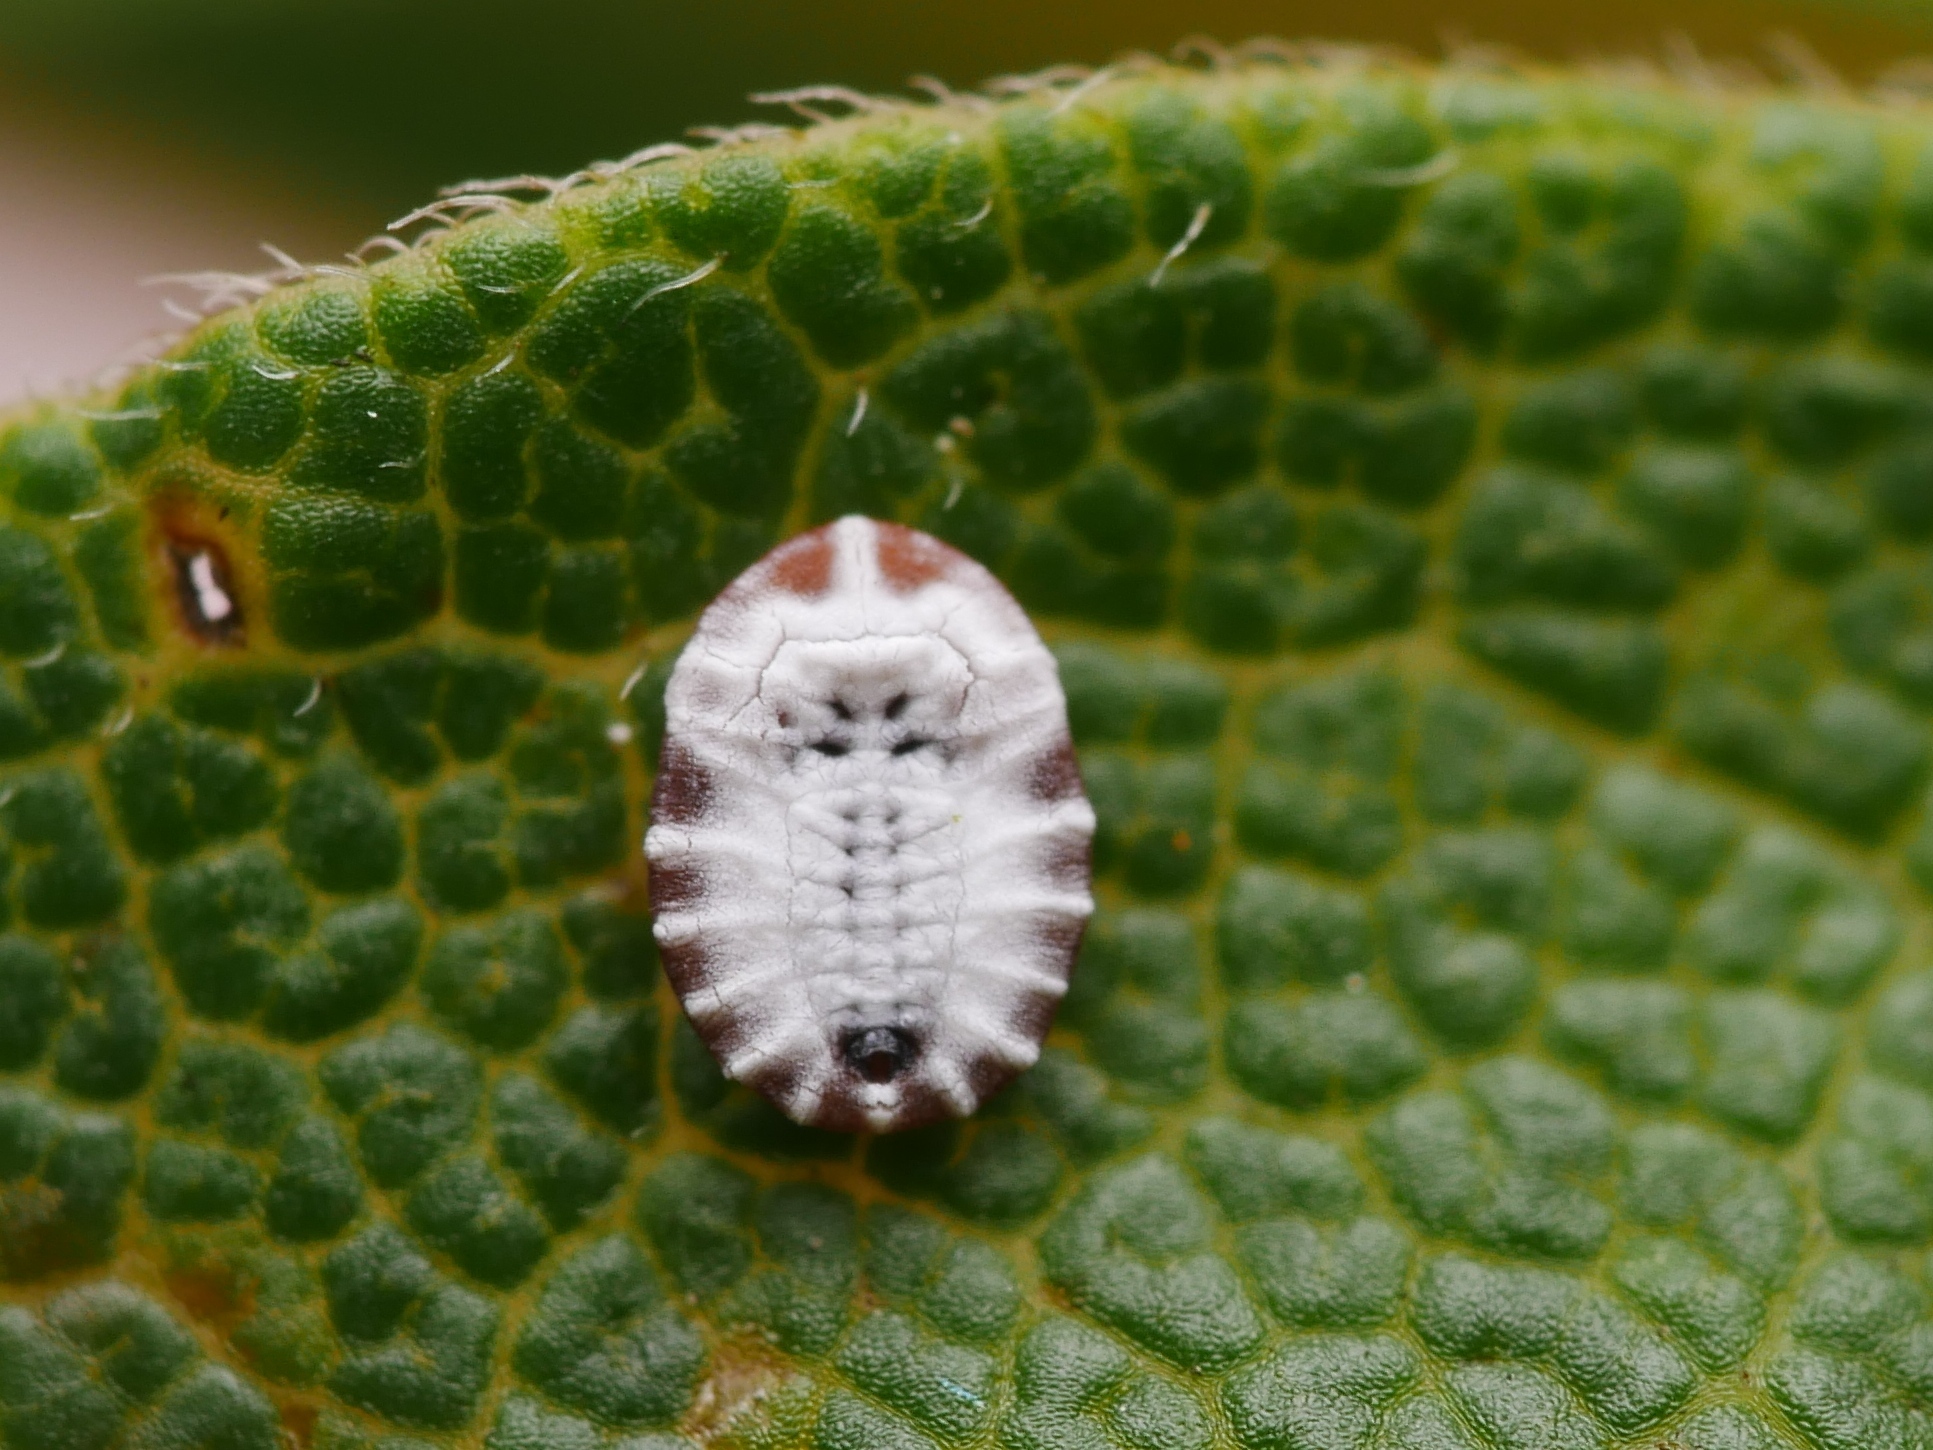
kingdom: Animalia
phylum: Arthropoda
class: Insecta
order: Hemiptera
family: Aleyrodidae
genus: Aleurochiton
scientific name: Aleurochiton acerinus
